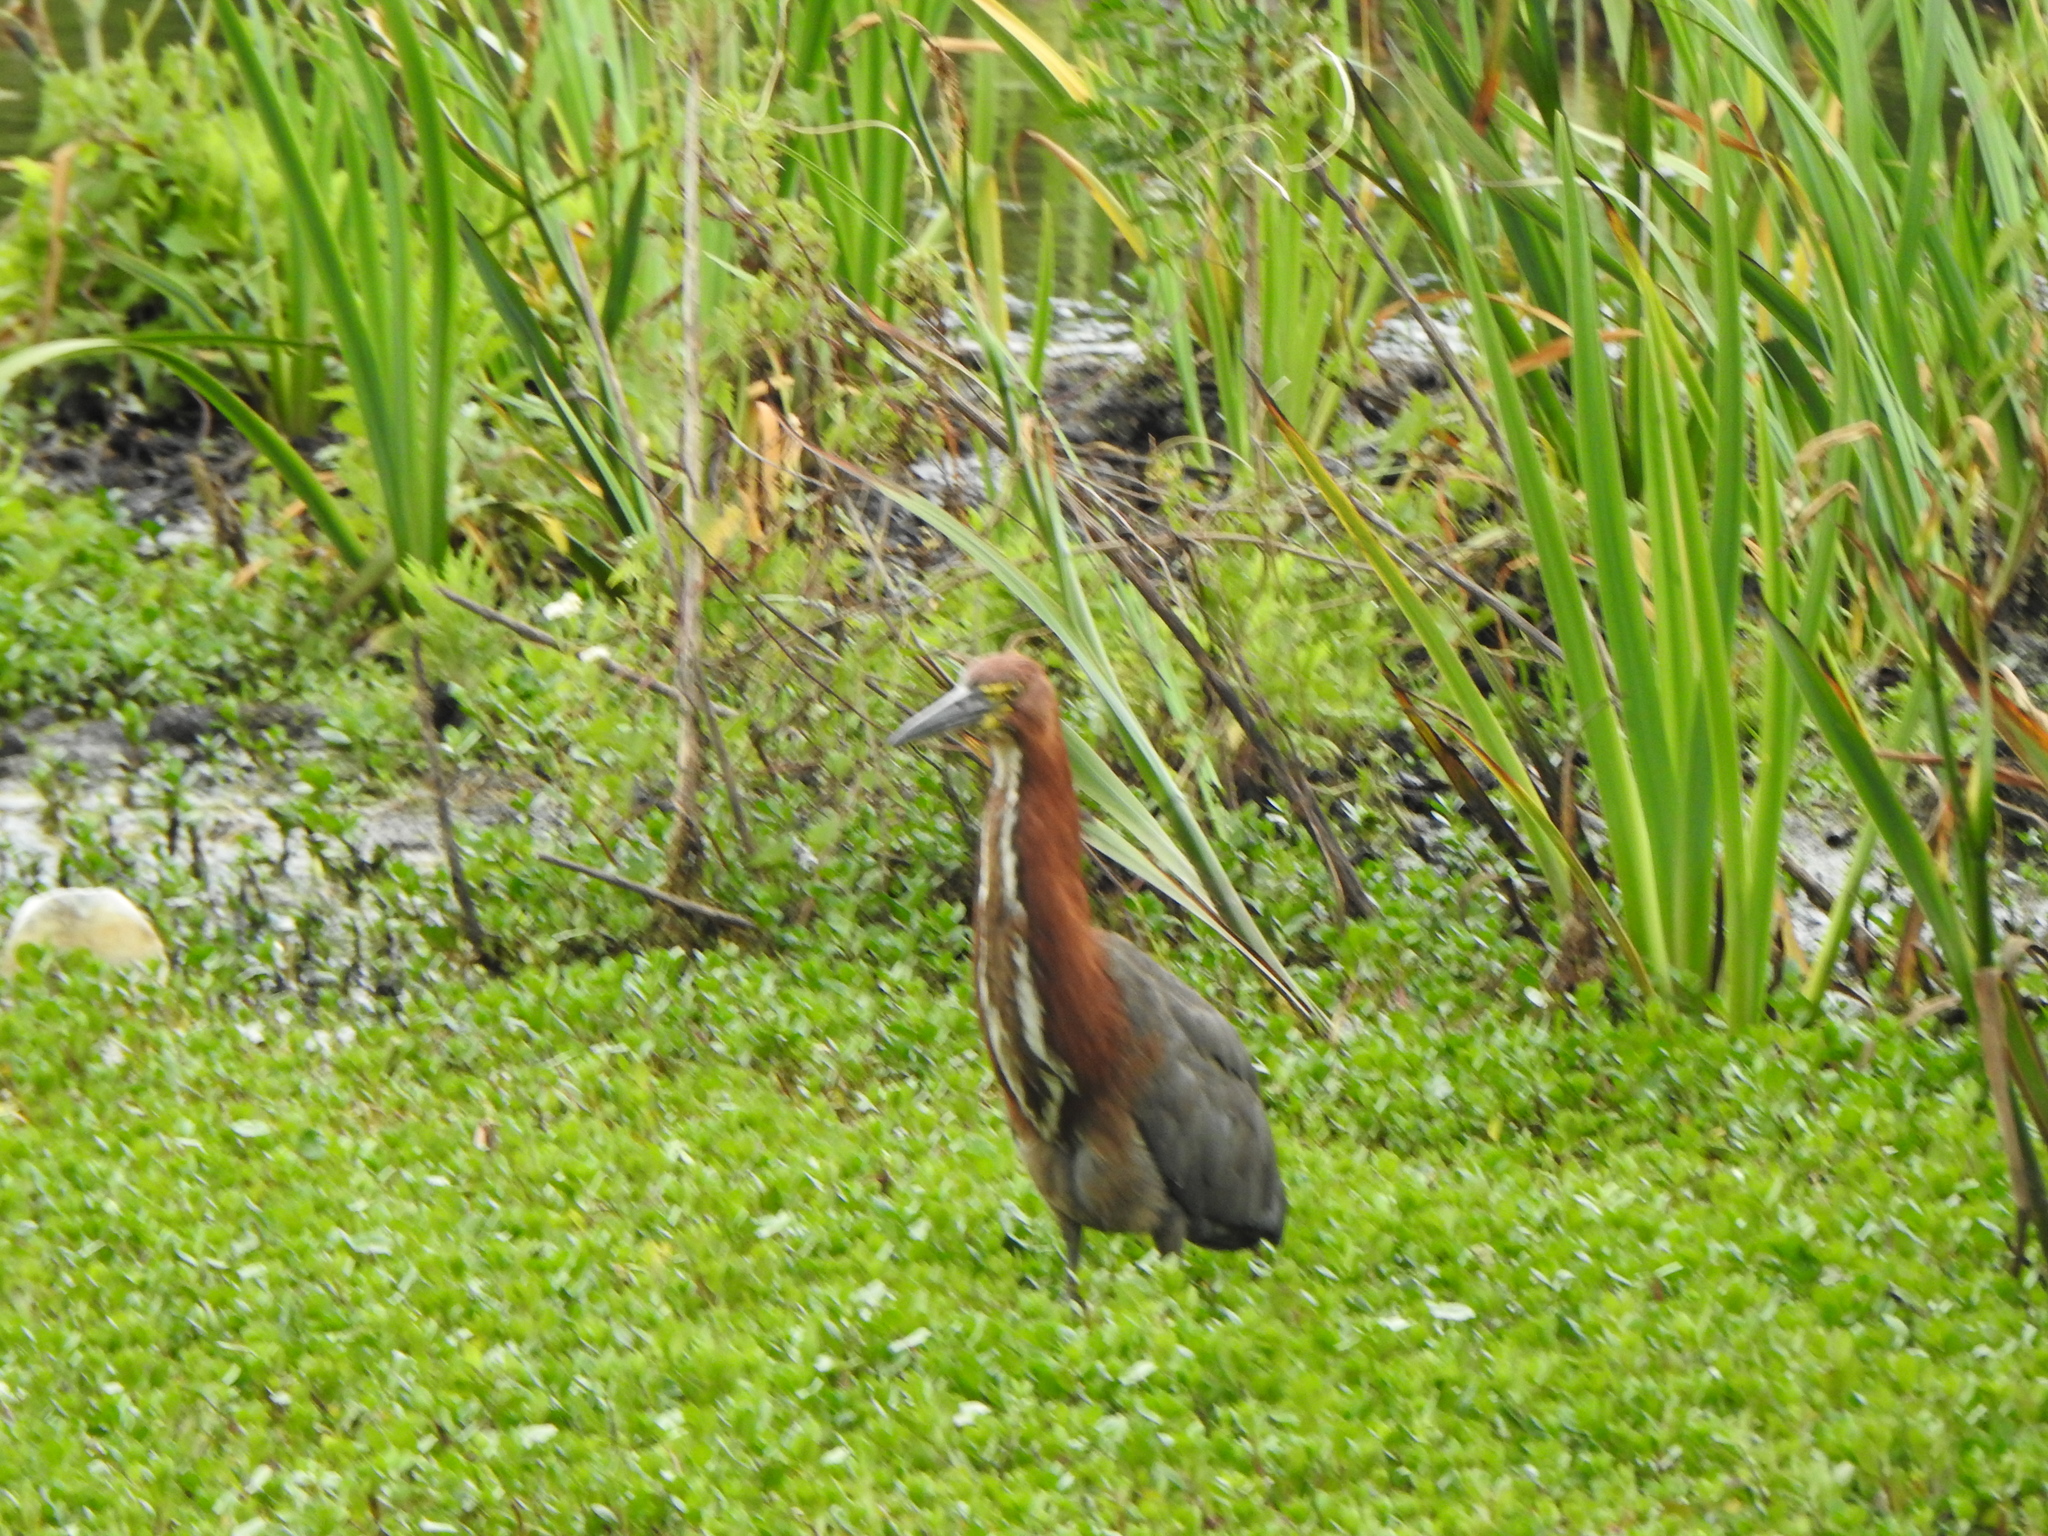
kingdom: Animalia
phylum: Chordata
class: Aves
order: Pelecaniformes
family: Ardeidae
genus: Tigrisoma
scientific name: Tigrisoma lineatum
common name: Rufescent tiger-heron
